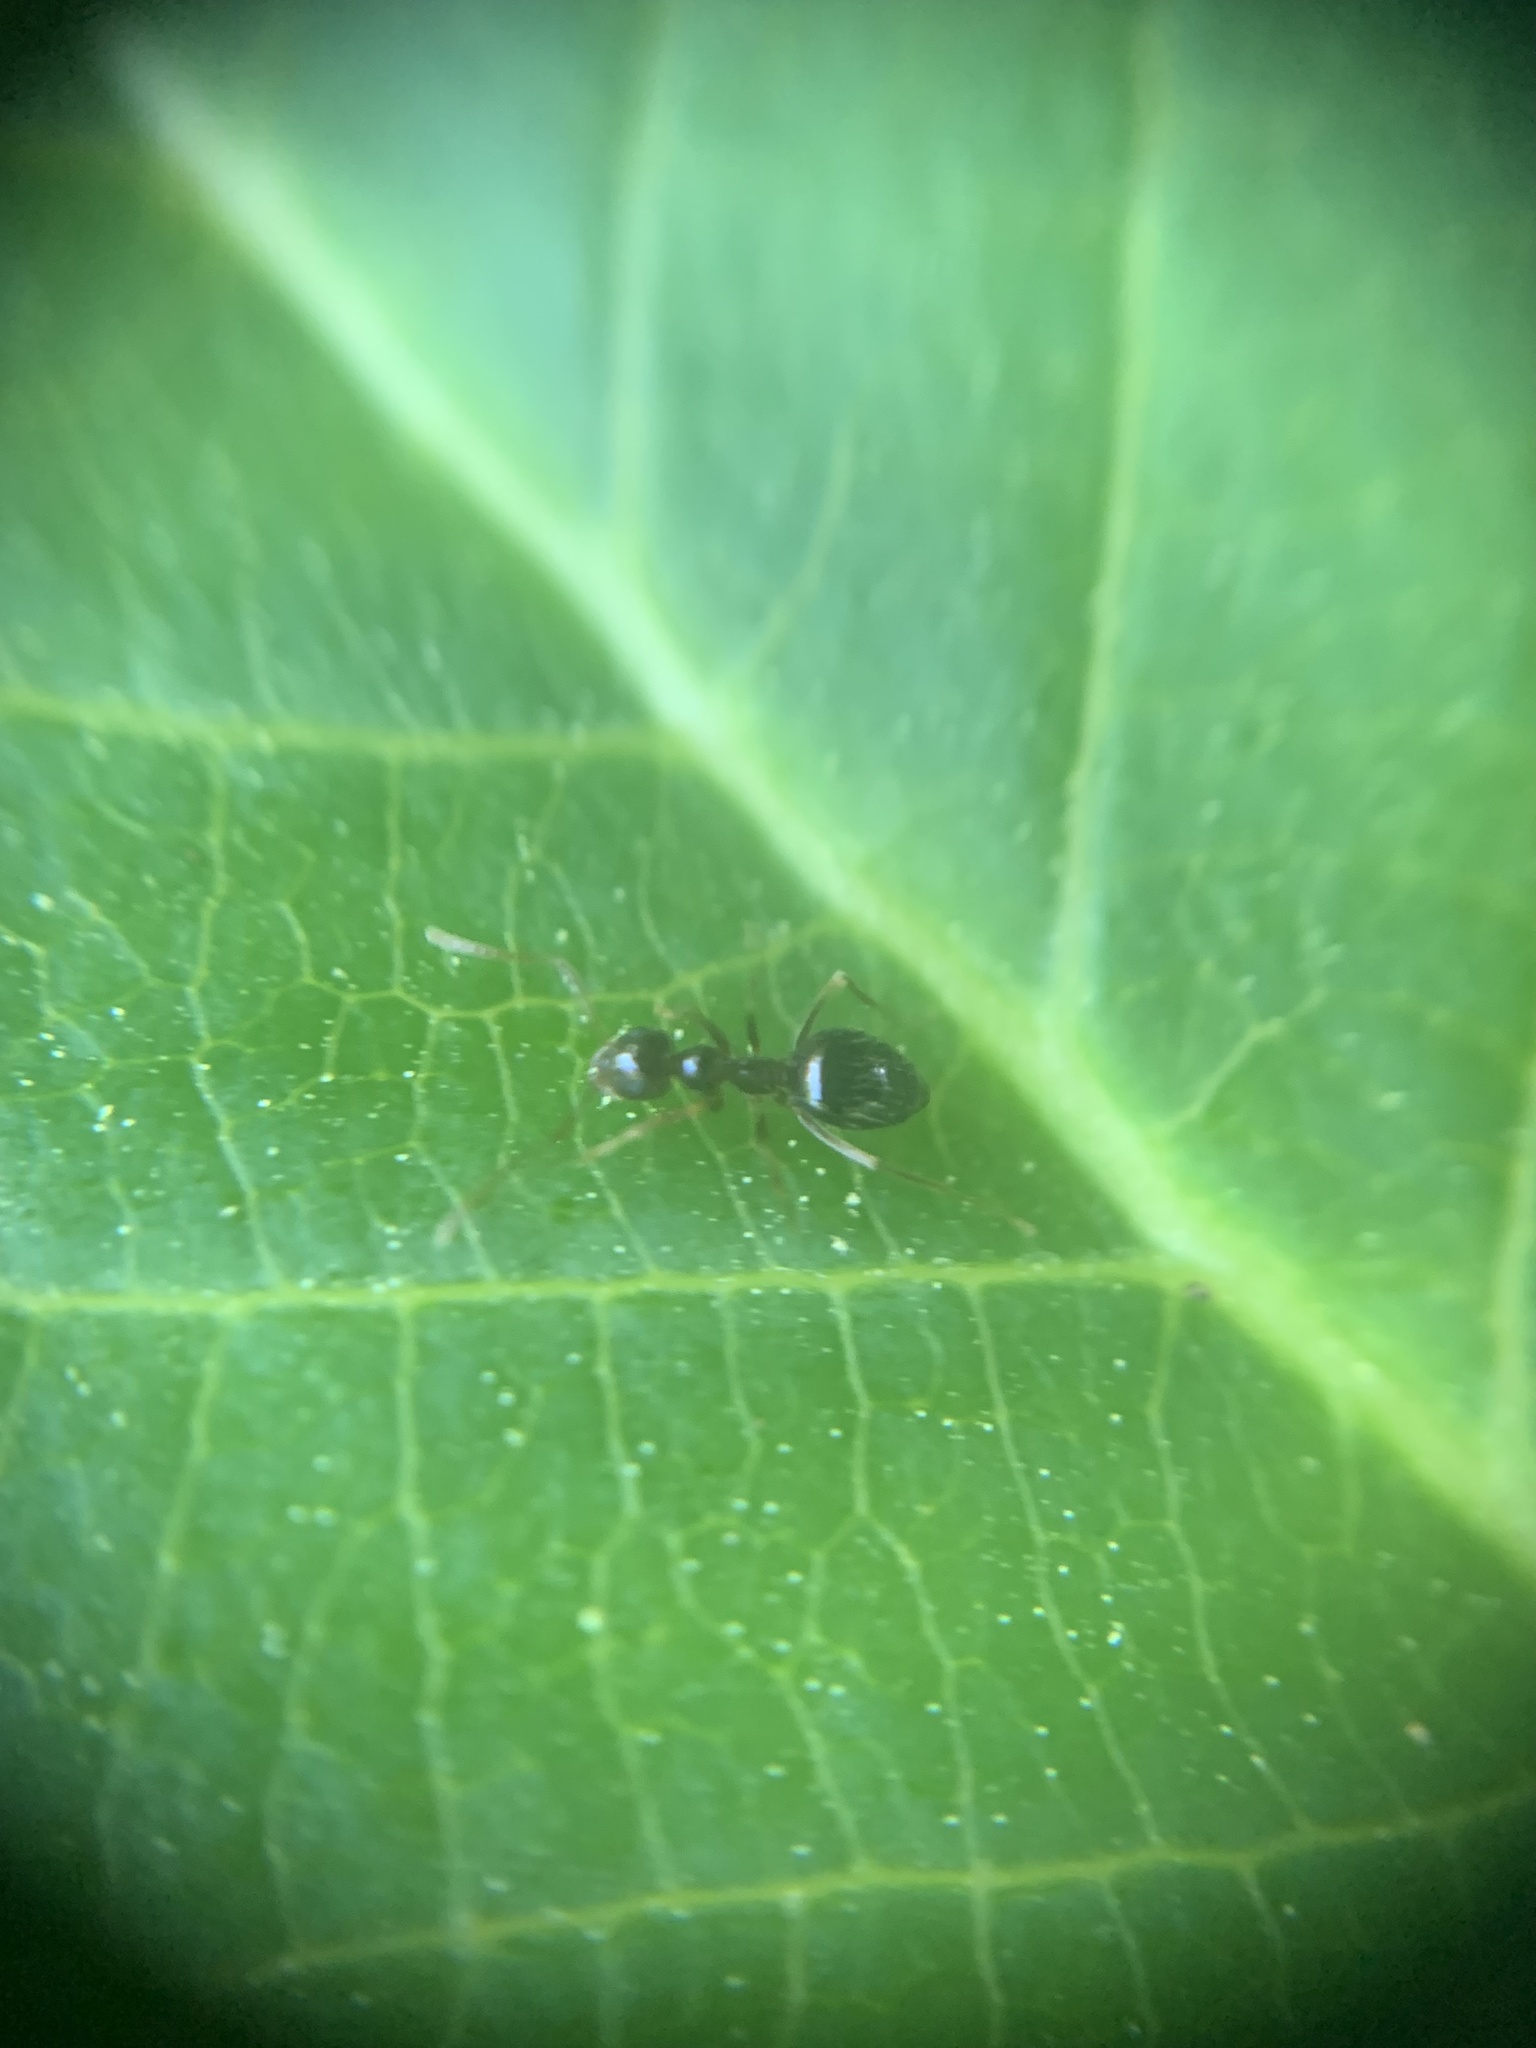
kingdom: Animalia
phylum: Arthropoda
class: Insecta
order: Hymenoptera
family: Formicidae
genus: Prenolepis
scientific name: Prenolepis imparis
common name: Small honey ant
